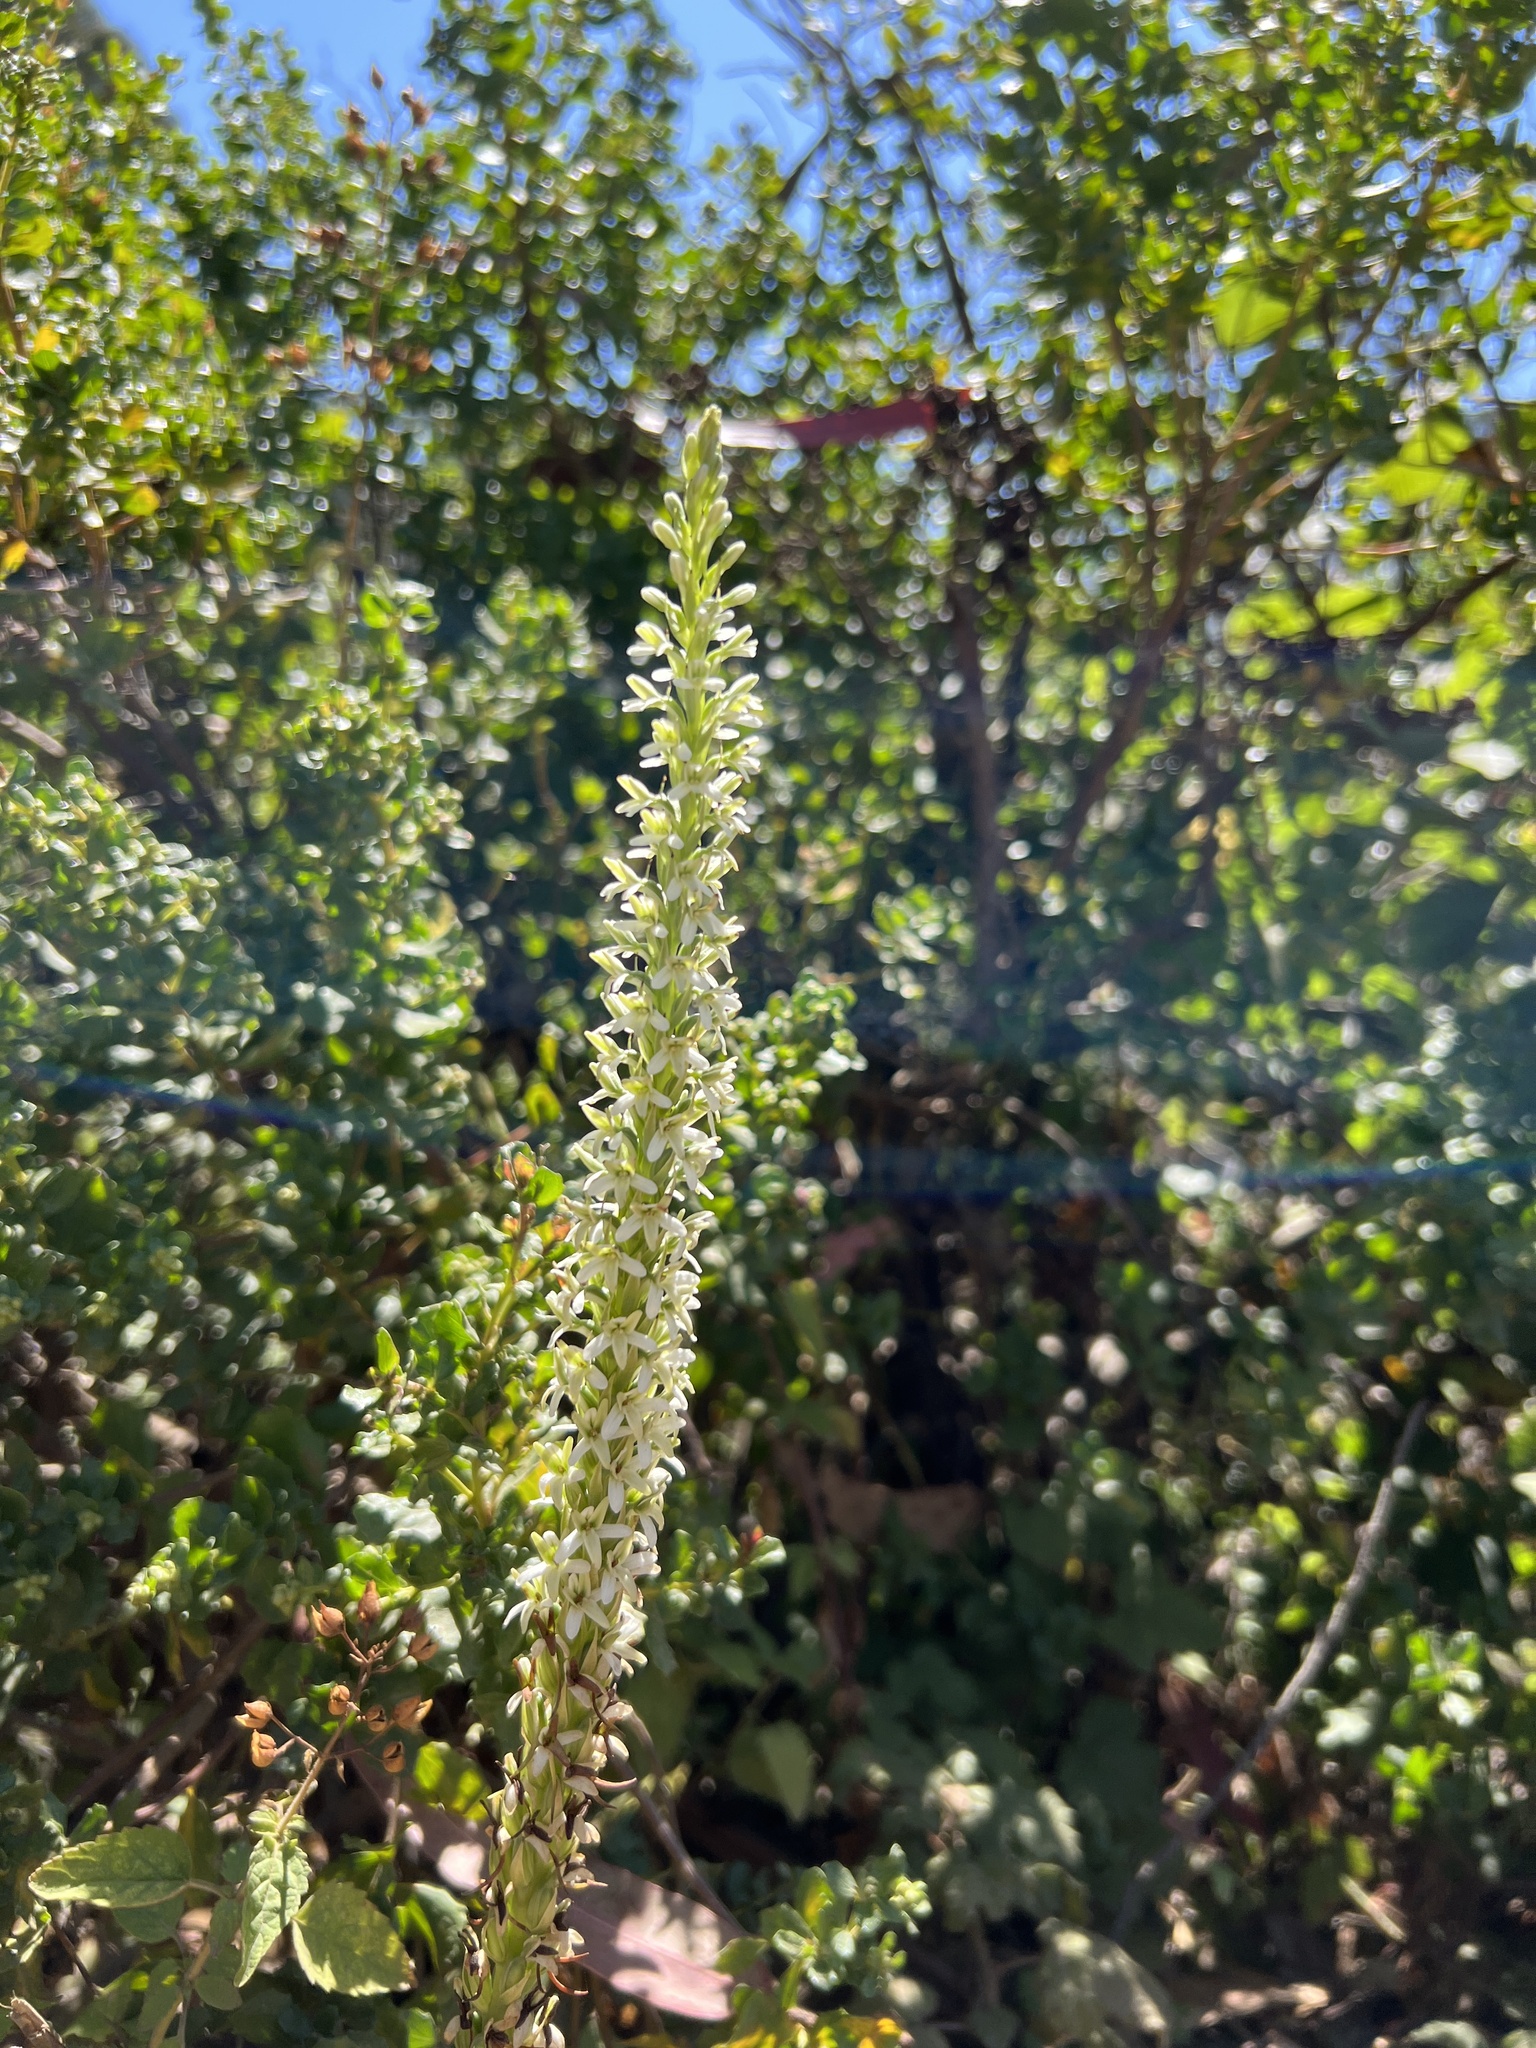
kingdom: Plantae
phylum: Tracheophyta
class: Liliopsida
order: Asparagales
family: Orchidaceae
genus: Platanthera
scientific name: Platanthera elegans
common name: Coast piperia
